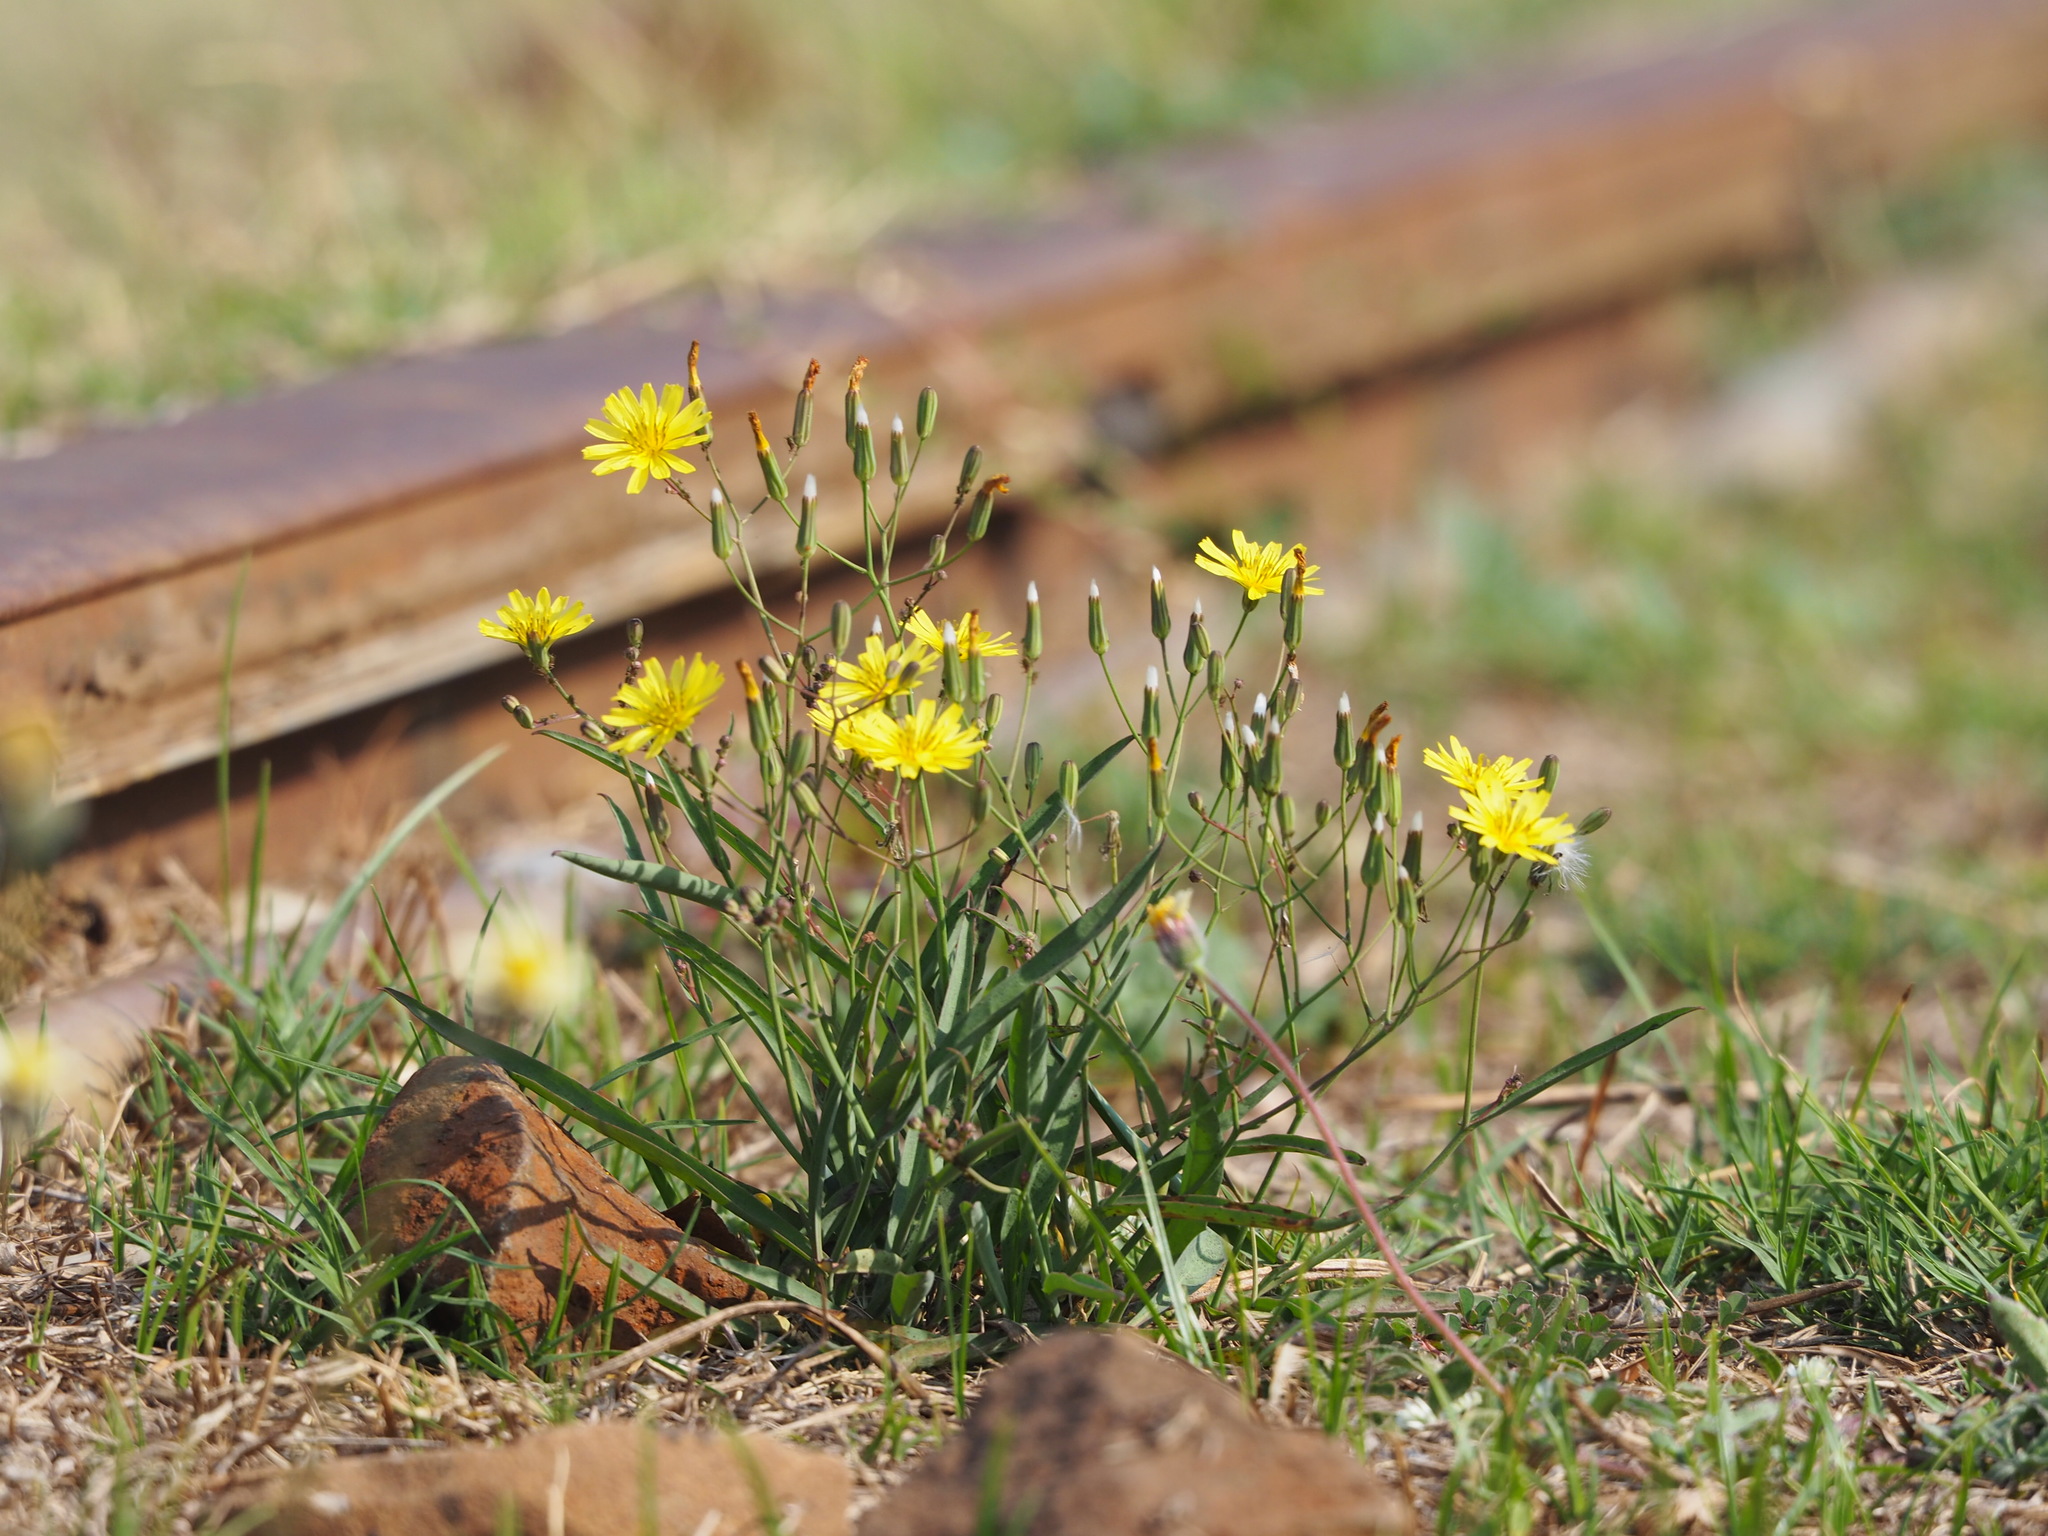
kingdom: Plantae
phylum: Tracheophyta
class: Magnoliopsida
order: Asterales
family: Asteraceae
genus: Ixeris
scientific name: Ixeris chinensis
